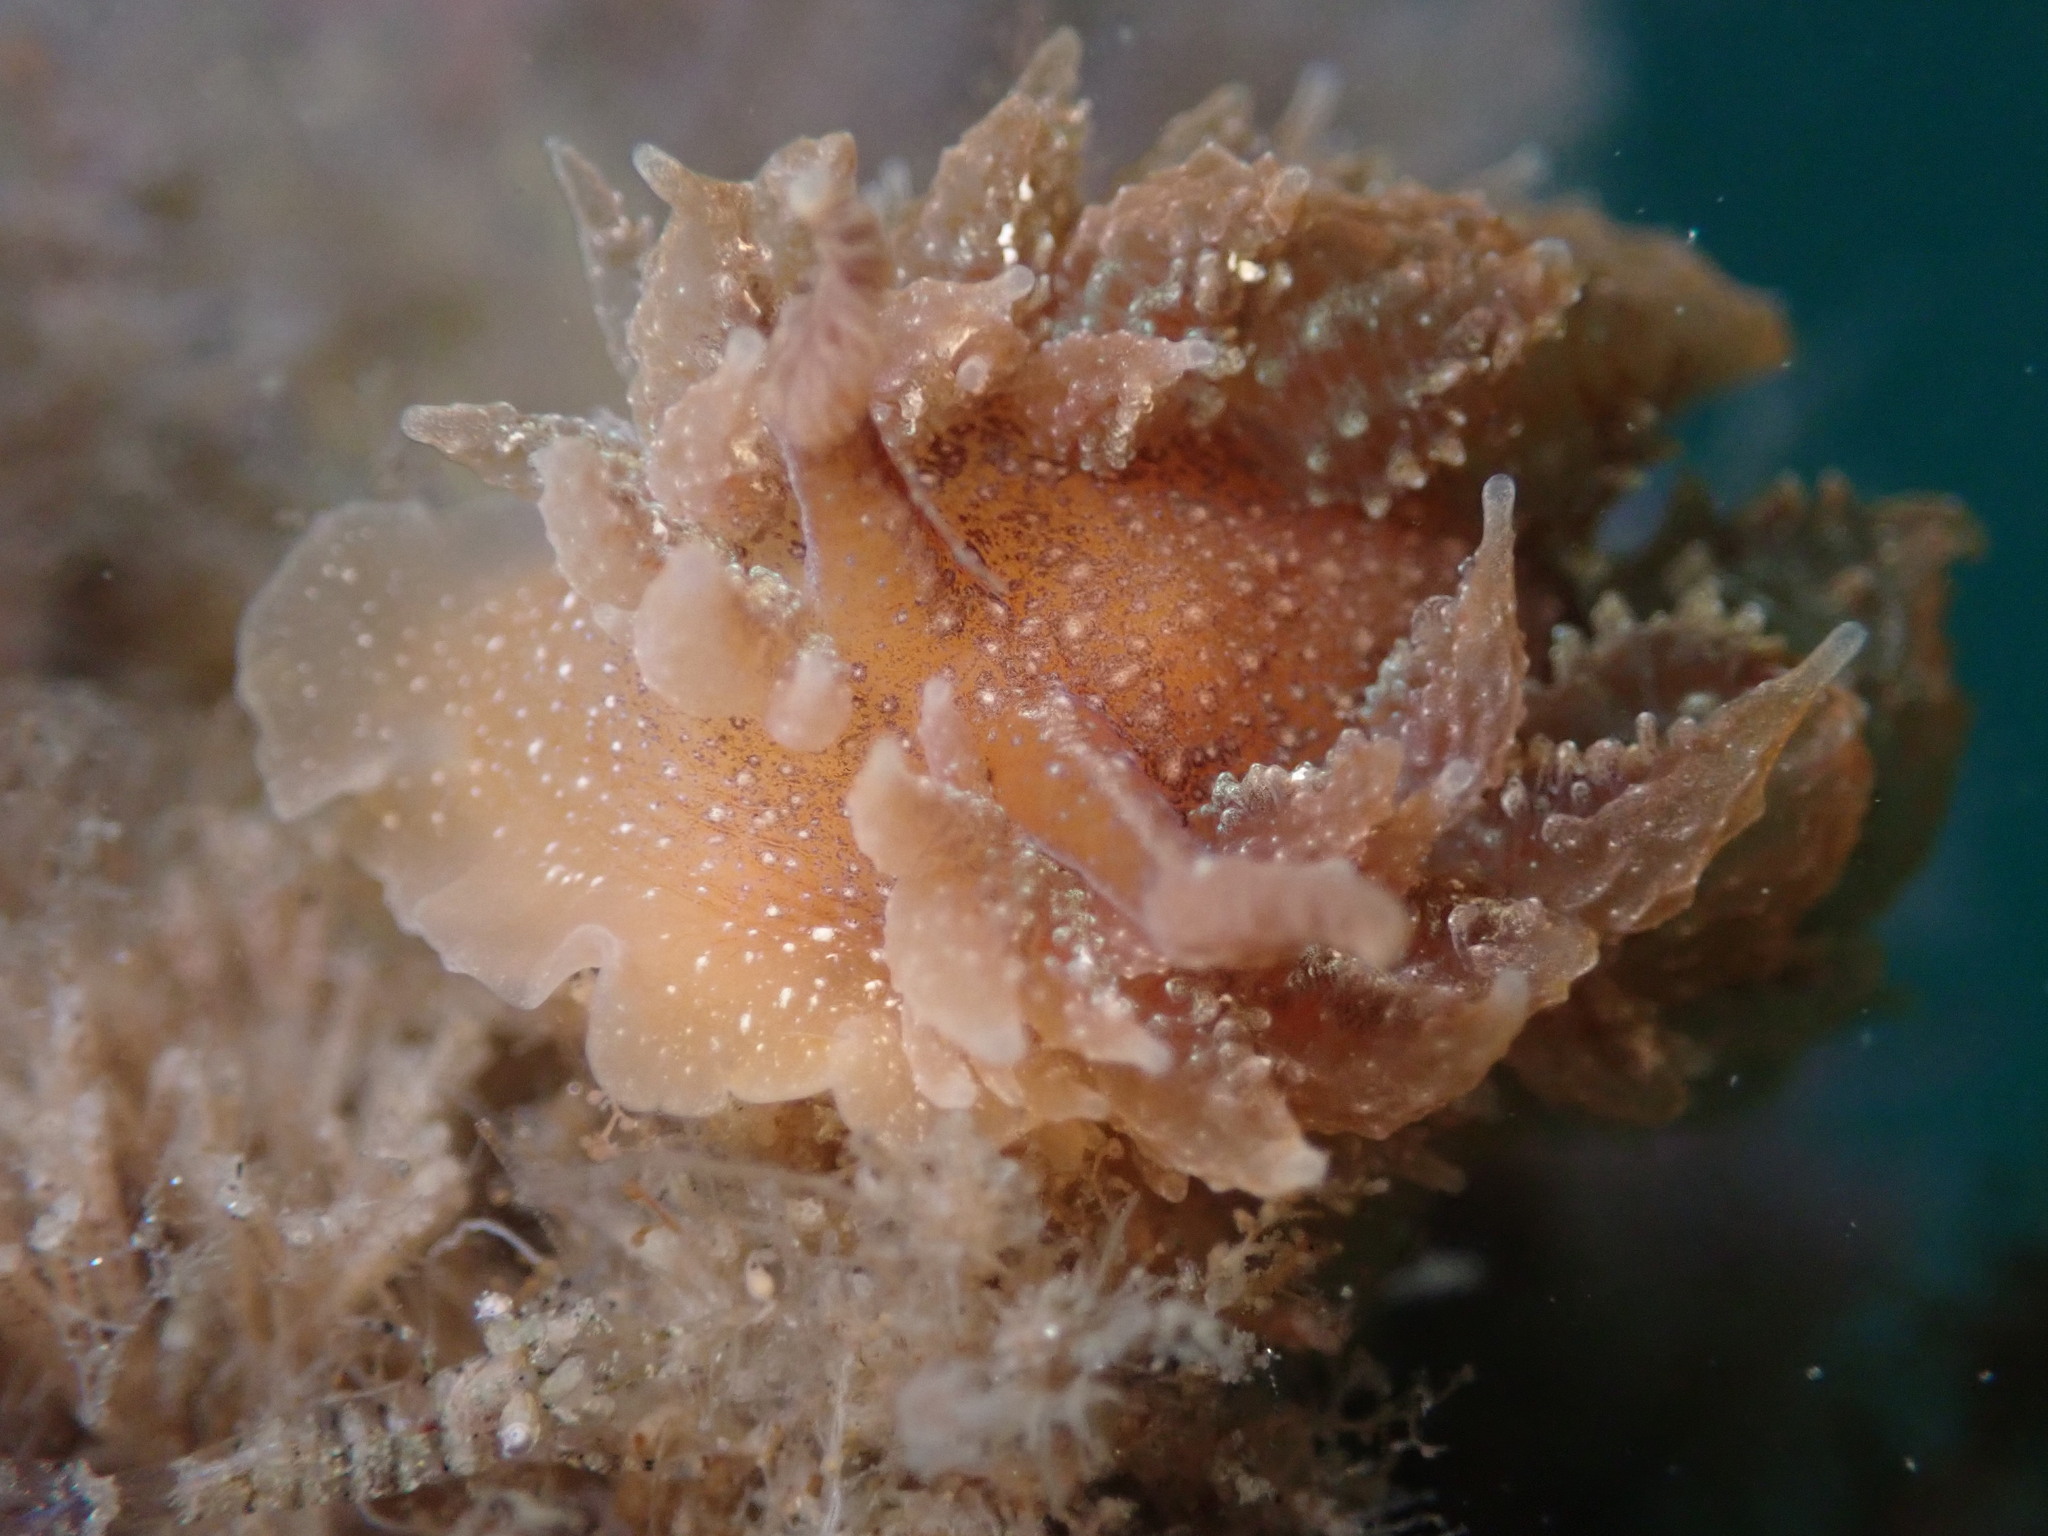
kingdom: Animalia
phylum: Mollusca
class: Gastropoda
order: Nudibranchia
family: Dironidae
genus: Dirona
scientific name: Dirona picta
